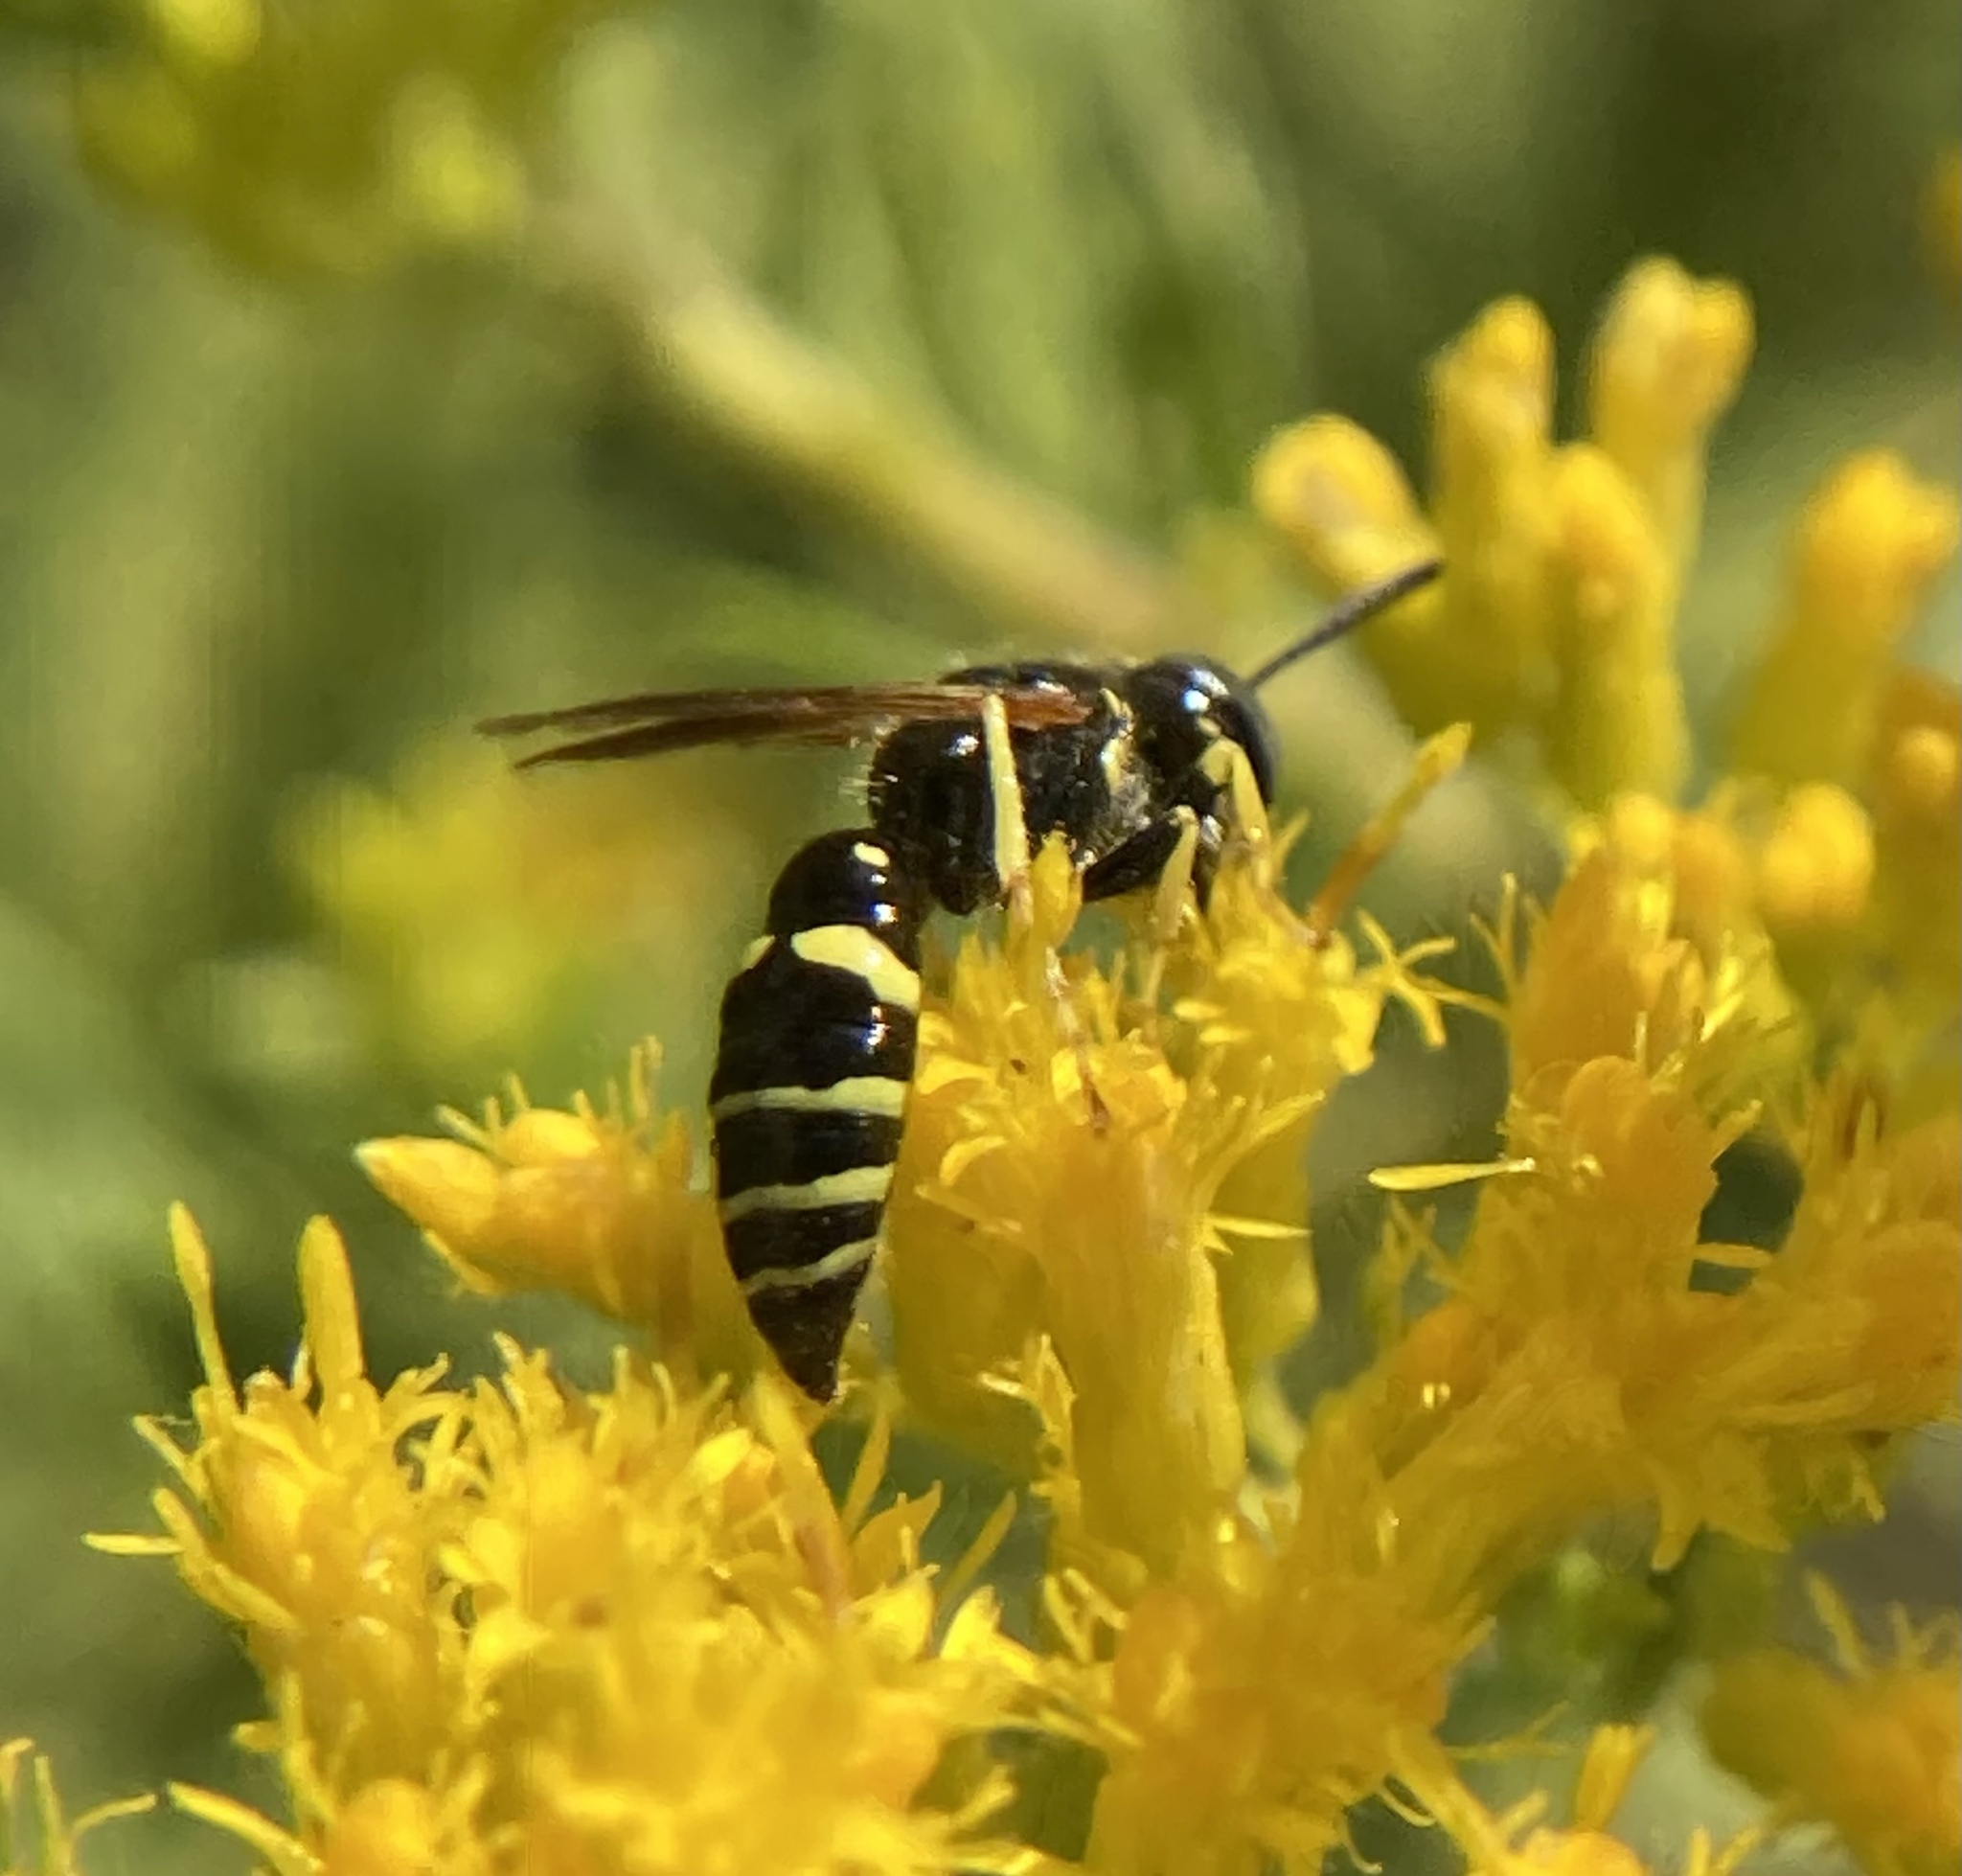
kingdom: Animalia
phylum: Arthropoda
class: Insecta
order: Hymenoptera
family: Crabronidae
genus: Philanthus
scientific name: Philanthus lepidus
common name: Pleasant beewolf
